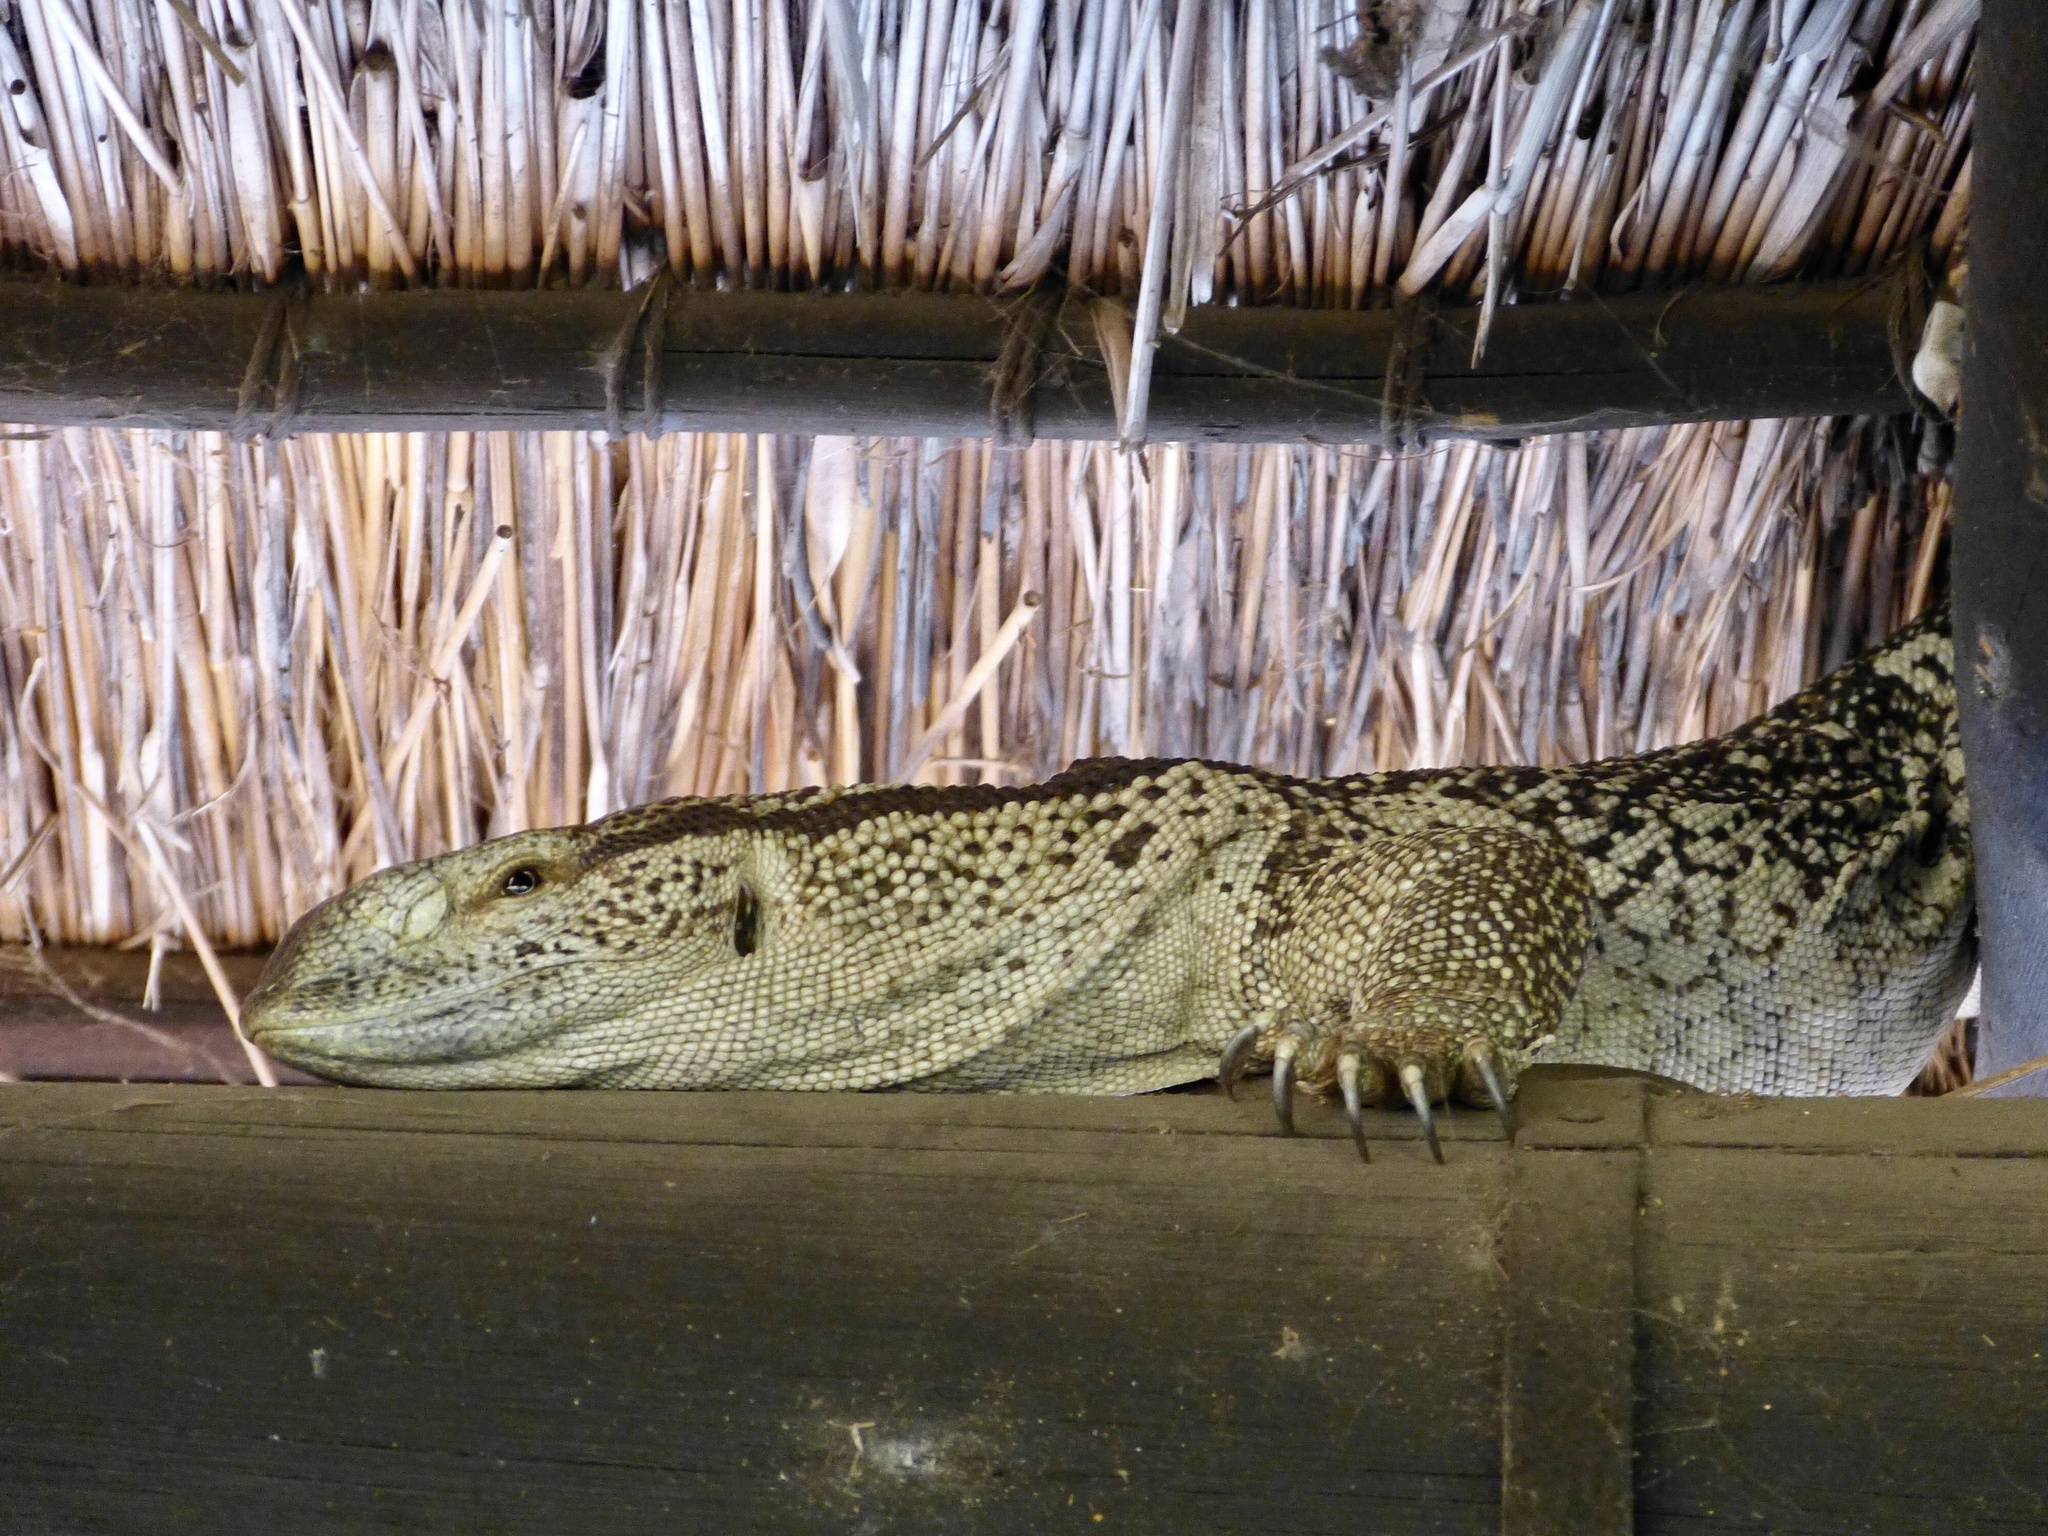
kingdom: Animalia
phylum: Chordata
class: Squamata
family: Varanidae
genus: Varanus
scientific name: Varanus albigularis
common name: White-throated monitor
